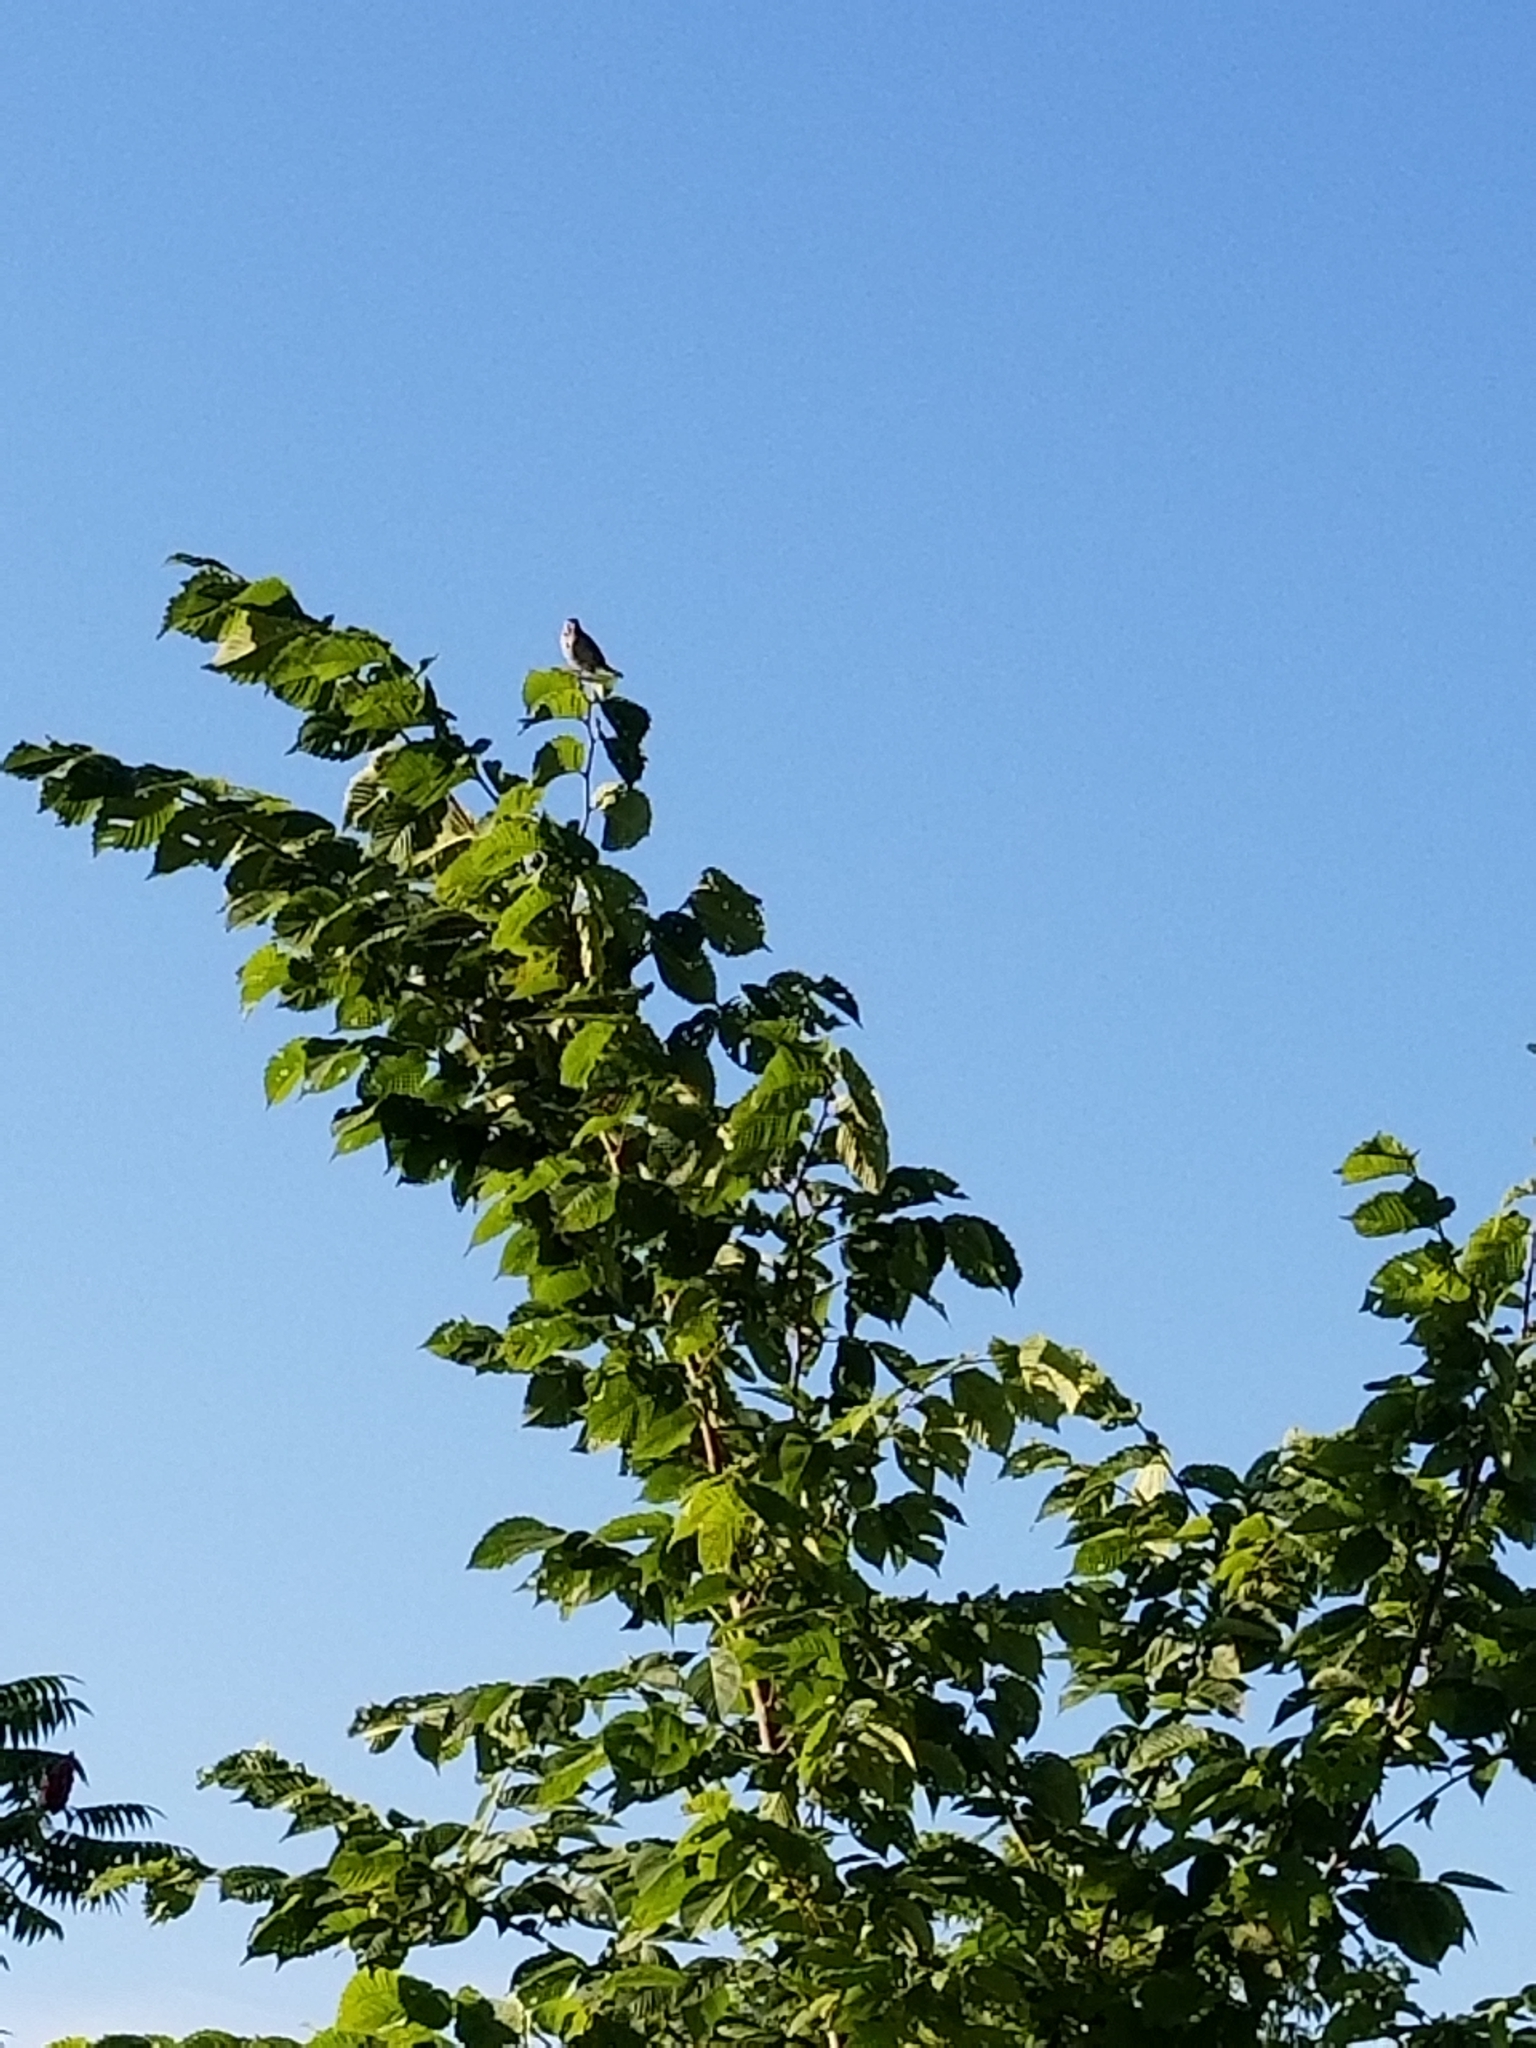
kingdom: Animalia
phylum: Chordata
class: Aves
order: Passeriformes
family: Passerellidae
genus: Melospiza
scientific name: Melospiza melodia
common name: Song sparrow
